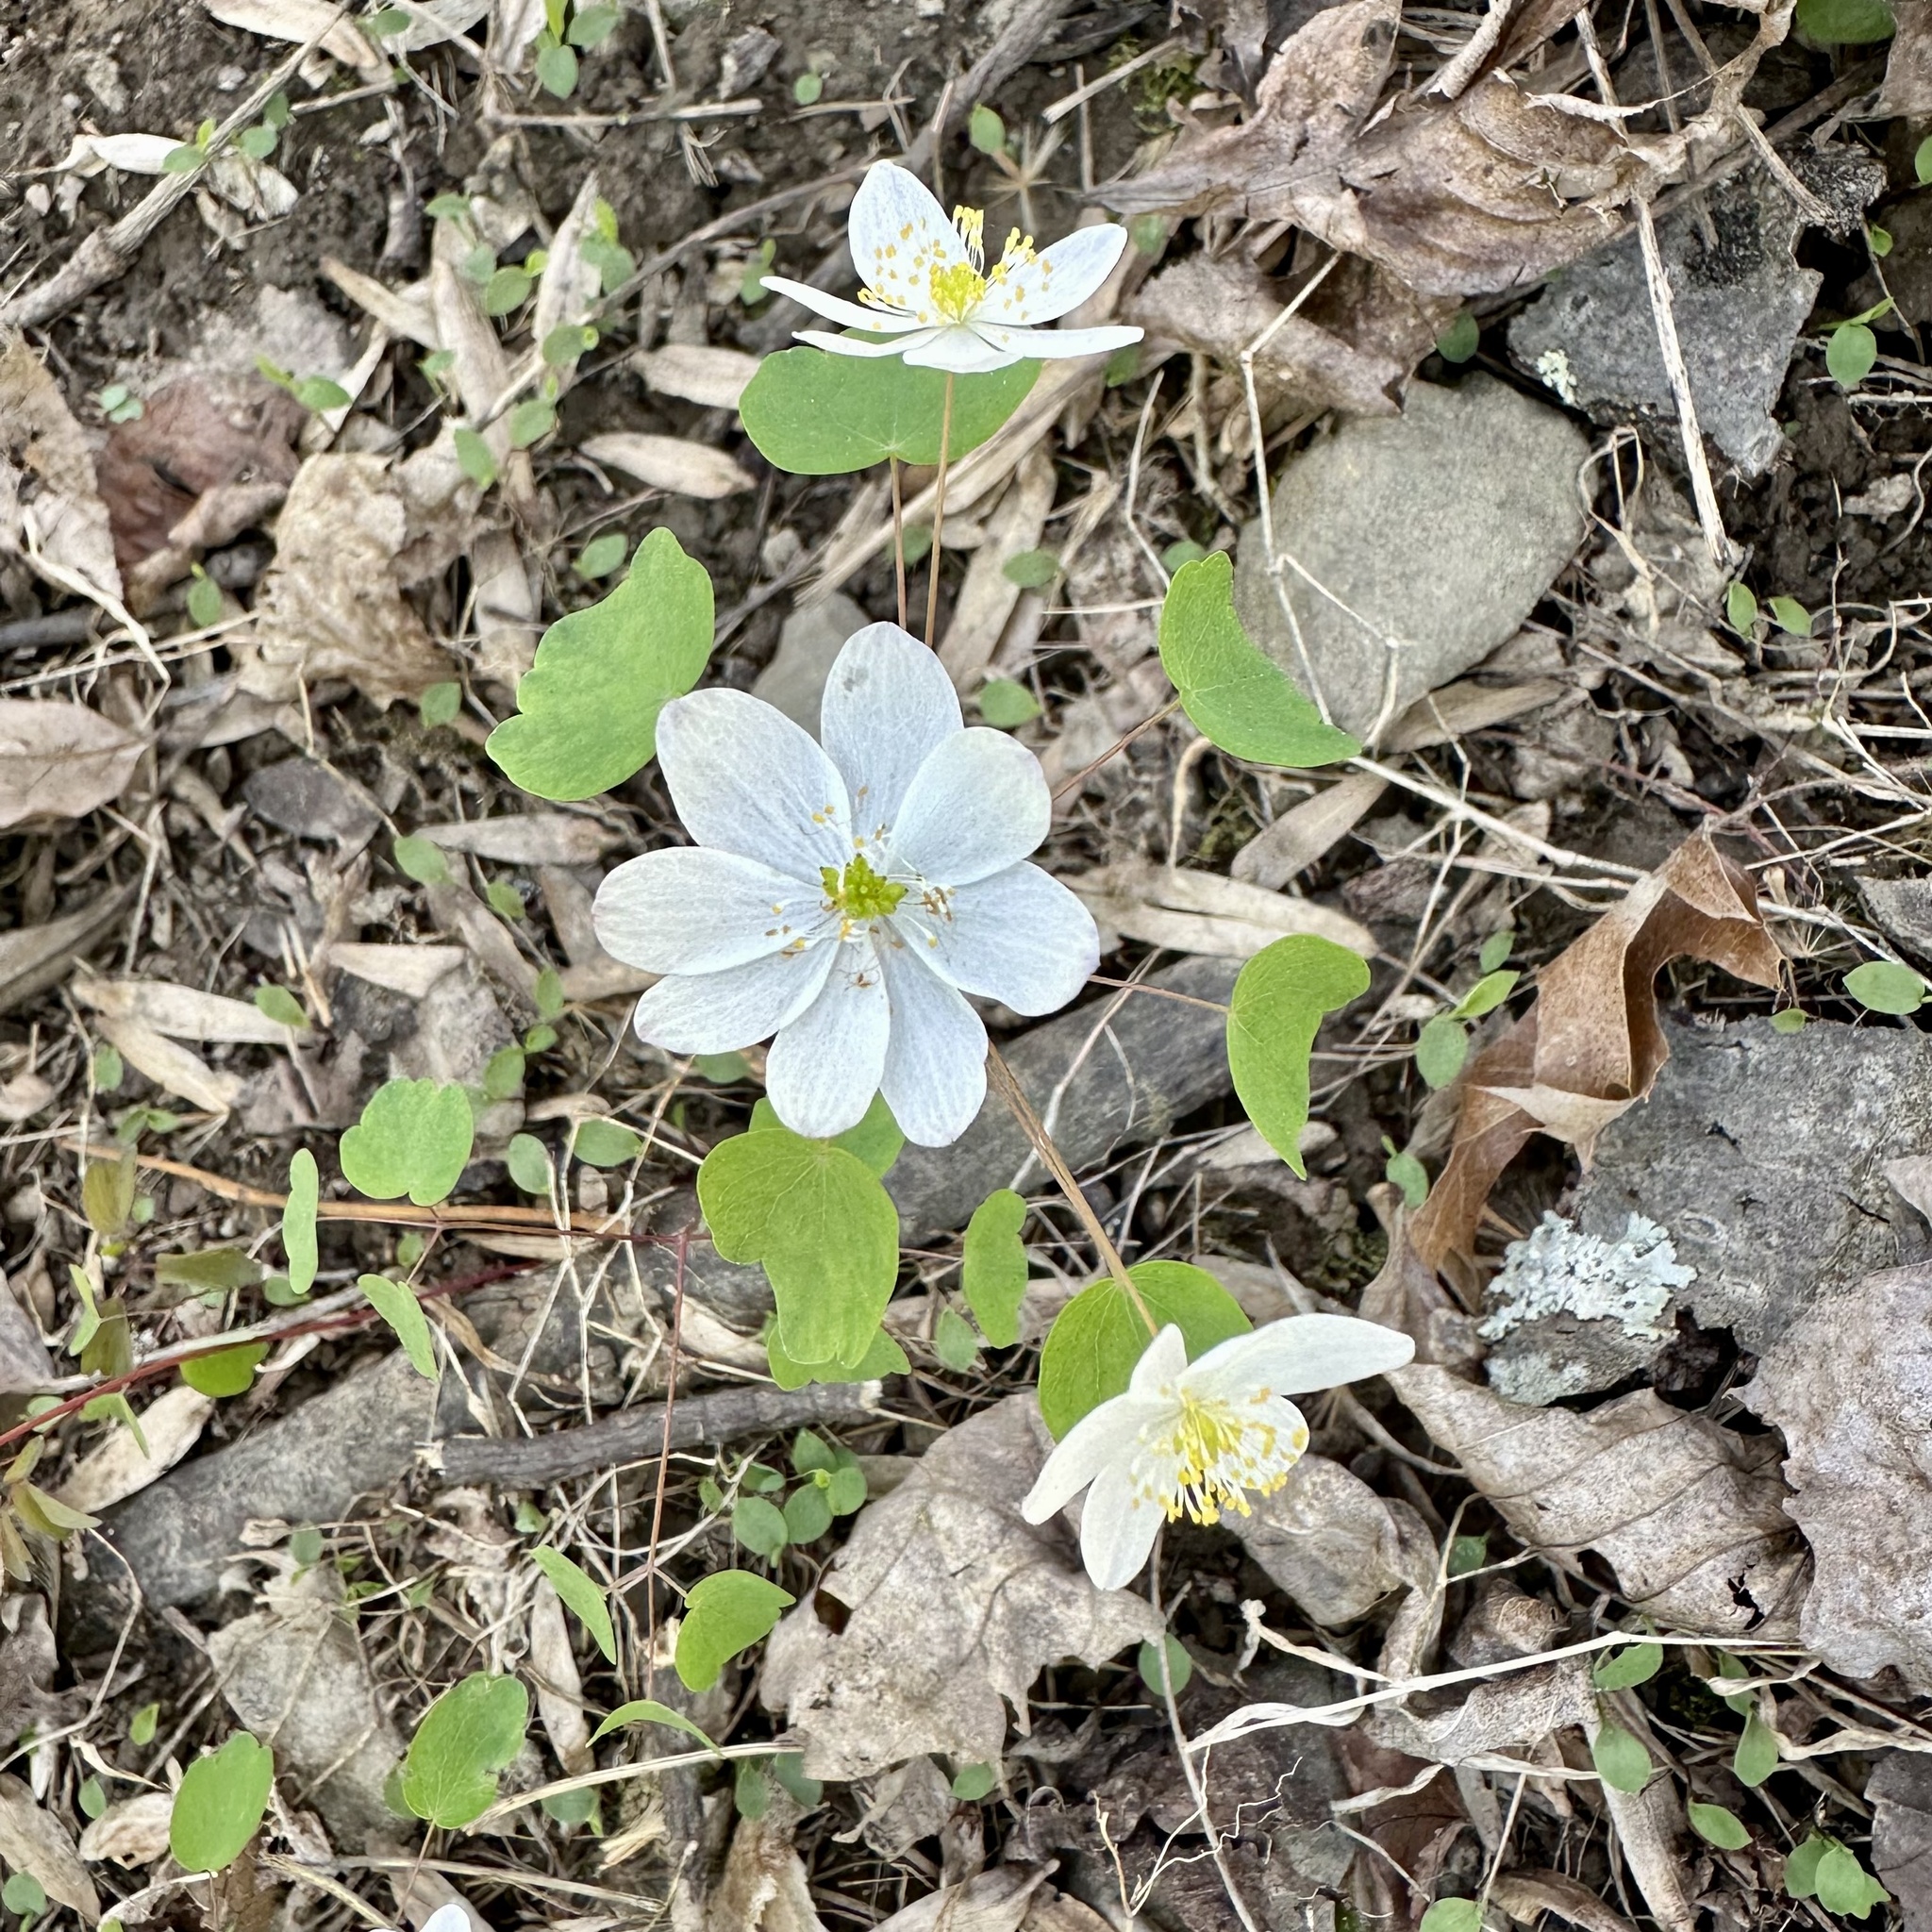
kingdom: Plantae
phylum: Tracheophyta
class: Magnoliopsida
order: Ranunculales
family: Ranunculaceae
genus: Thalictrum
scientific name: Thalictrum thalictroides
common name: Rue-anemone
